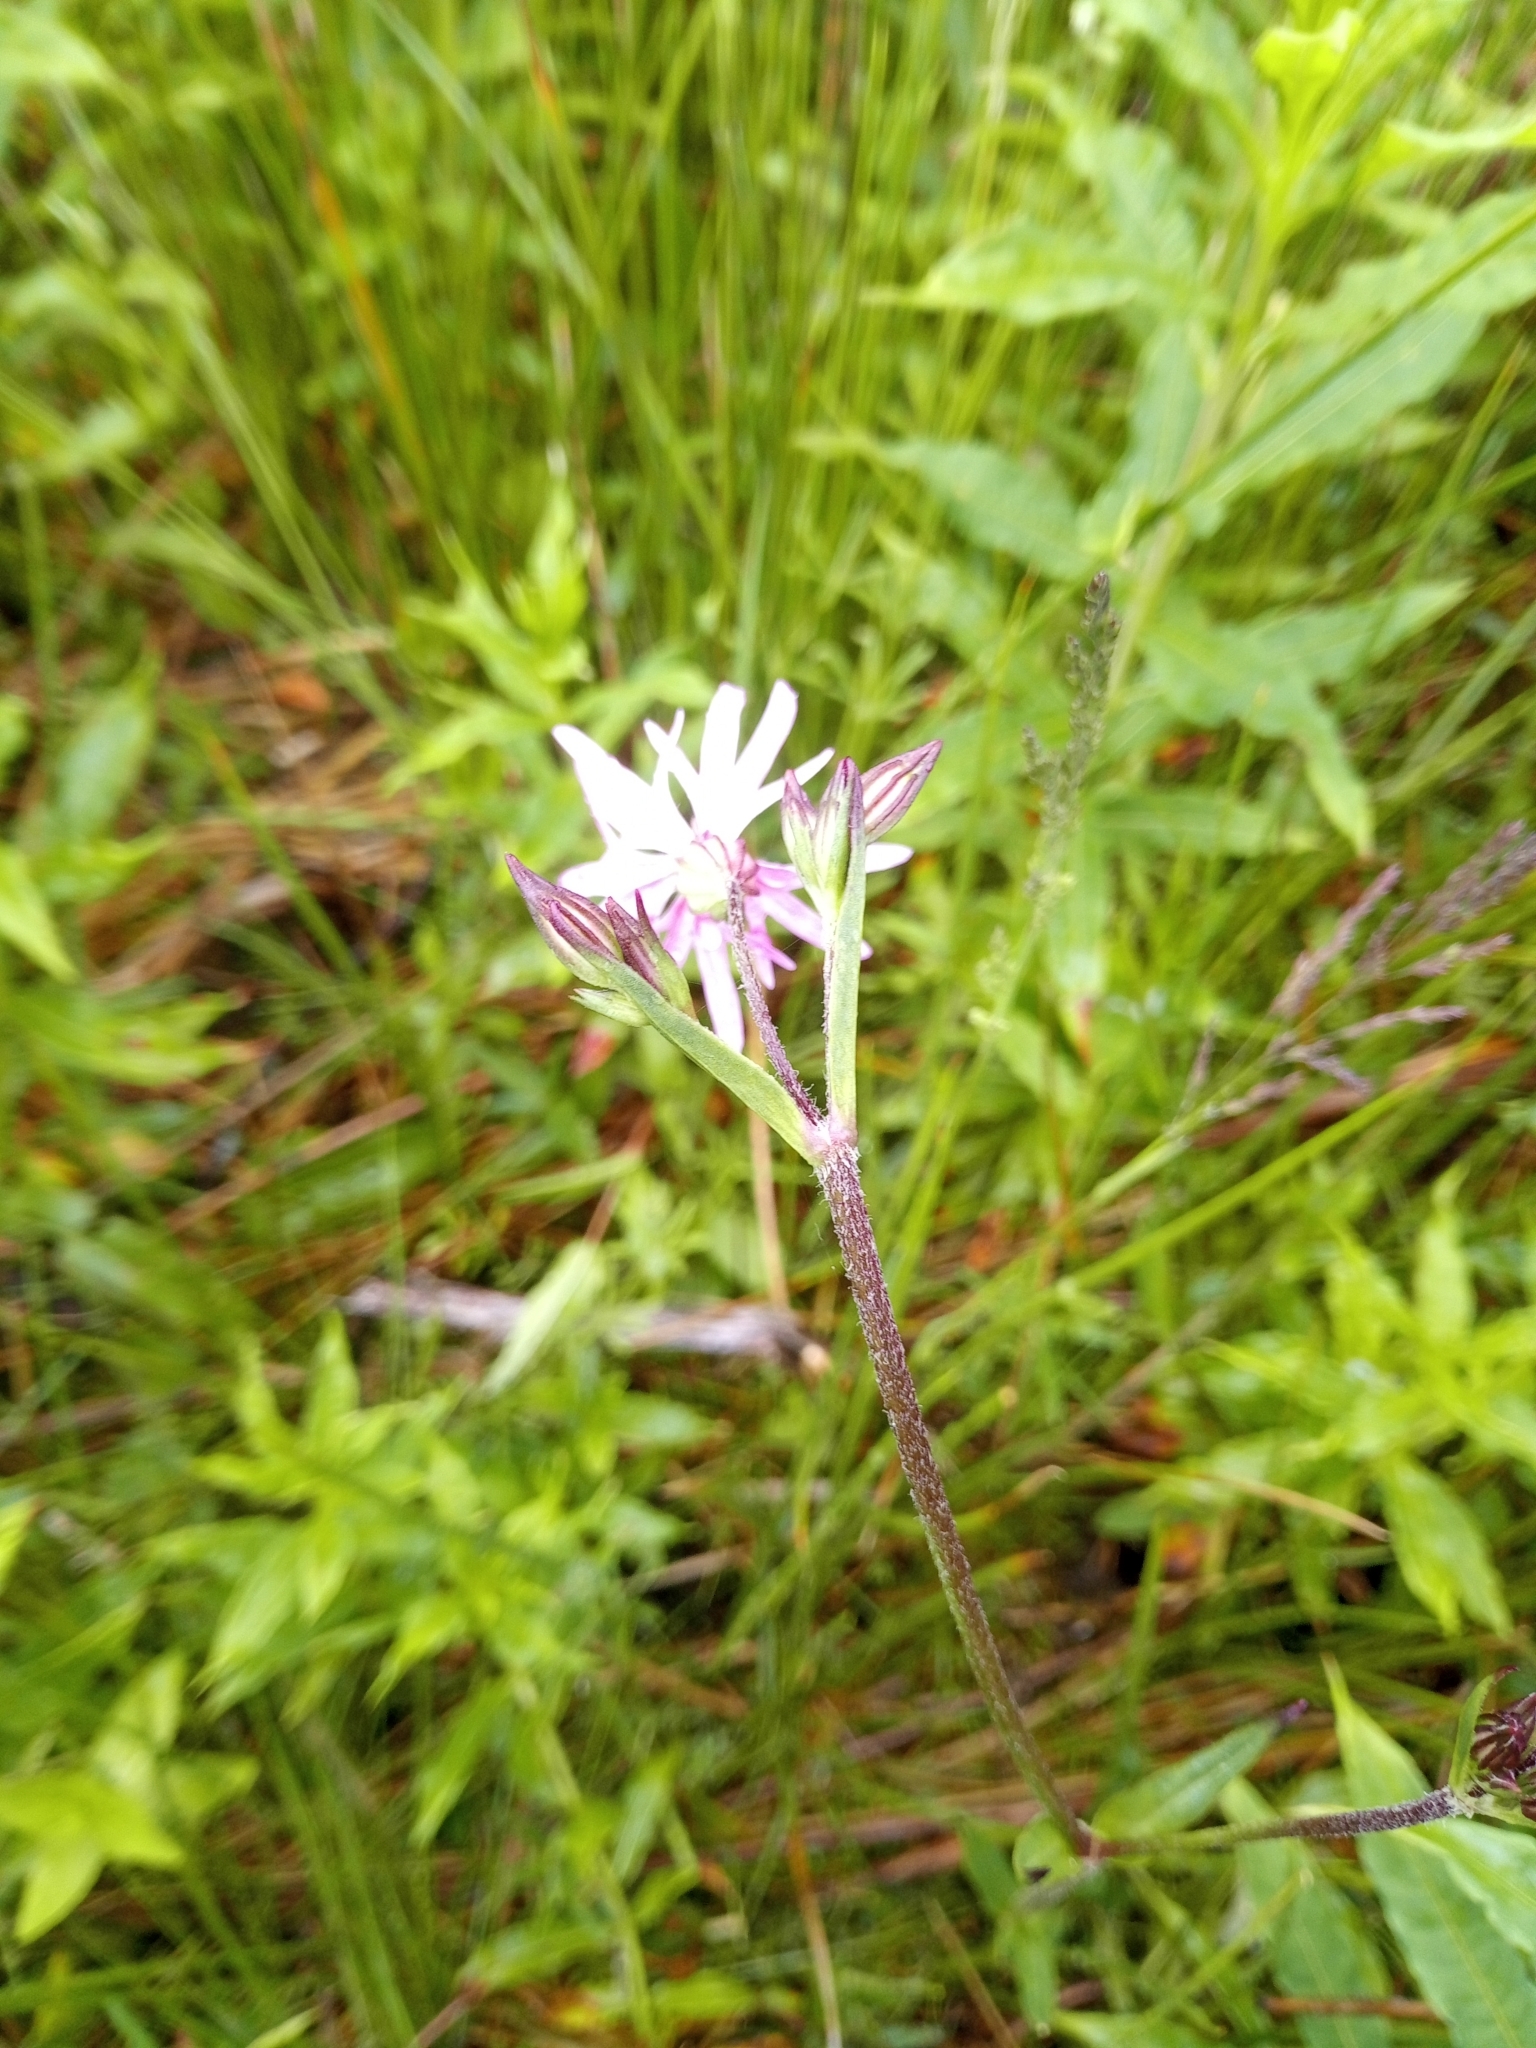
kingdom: Plantae
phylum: Tracheophyta
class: Magnoliopsida
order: Caryophyllales
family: Caryophyllaceae
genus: Silene
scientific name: Silene flos-cuculi
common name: Ragged-robin
